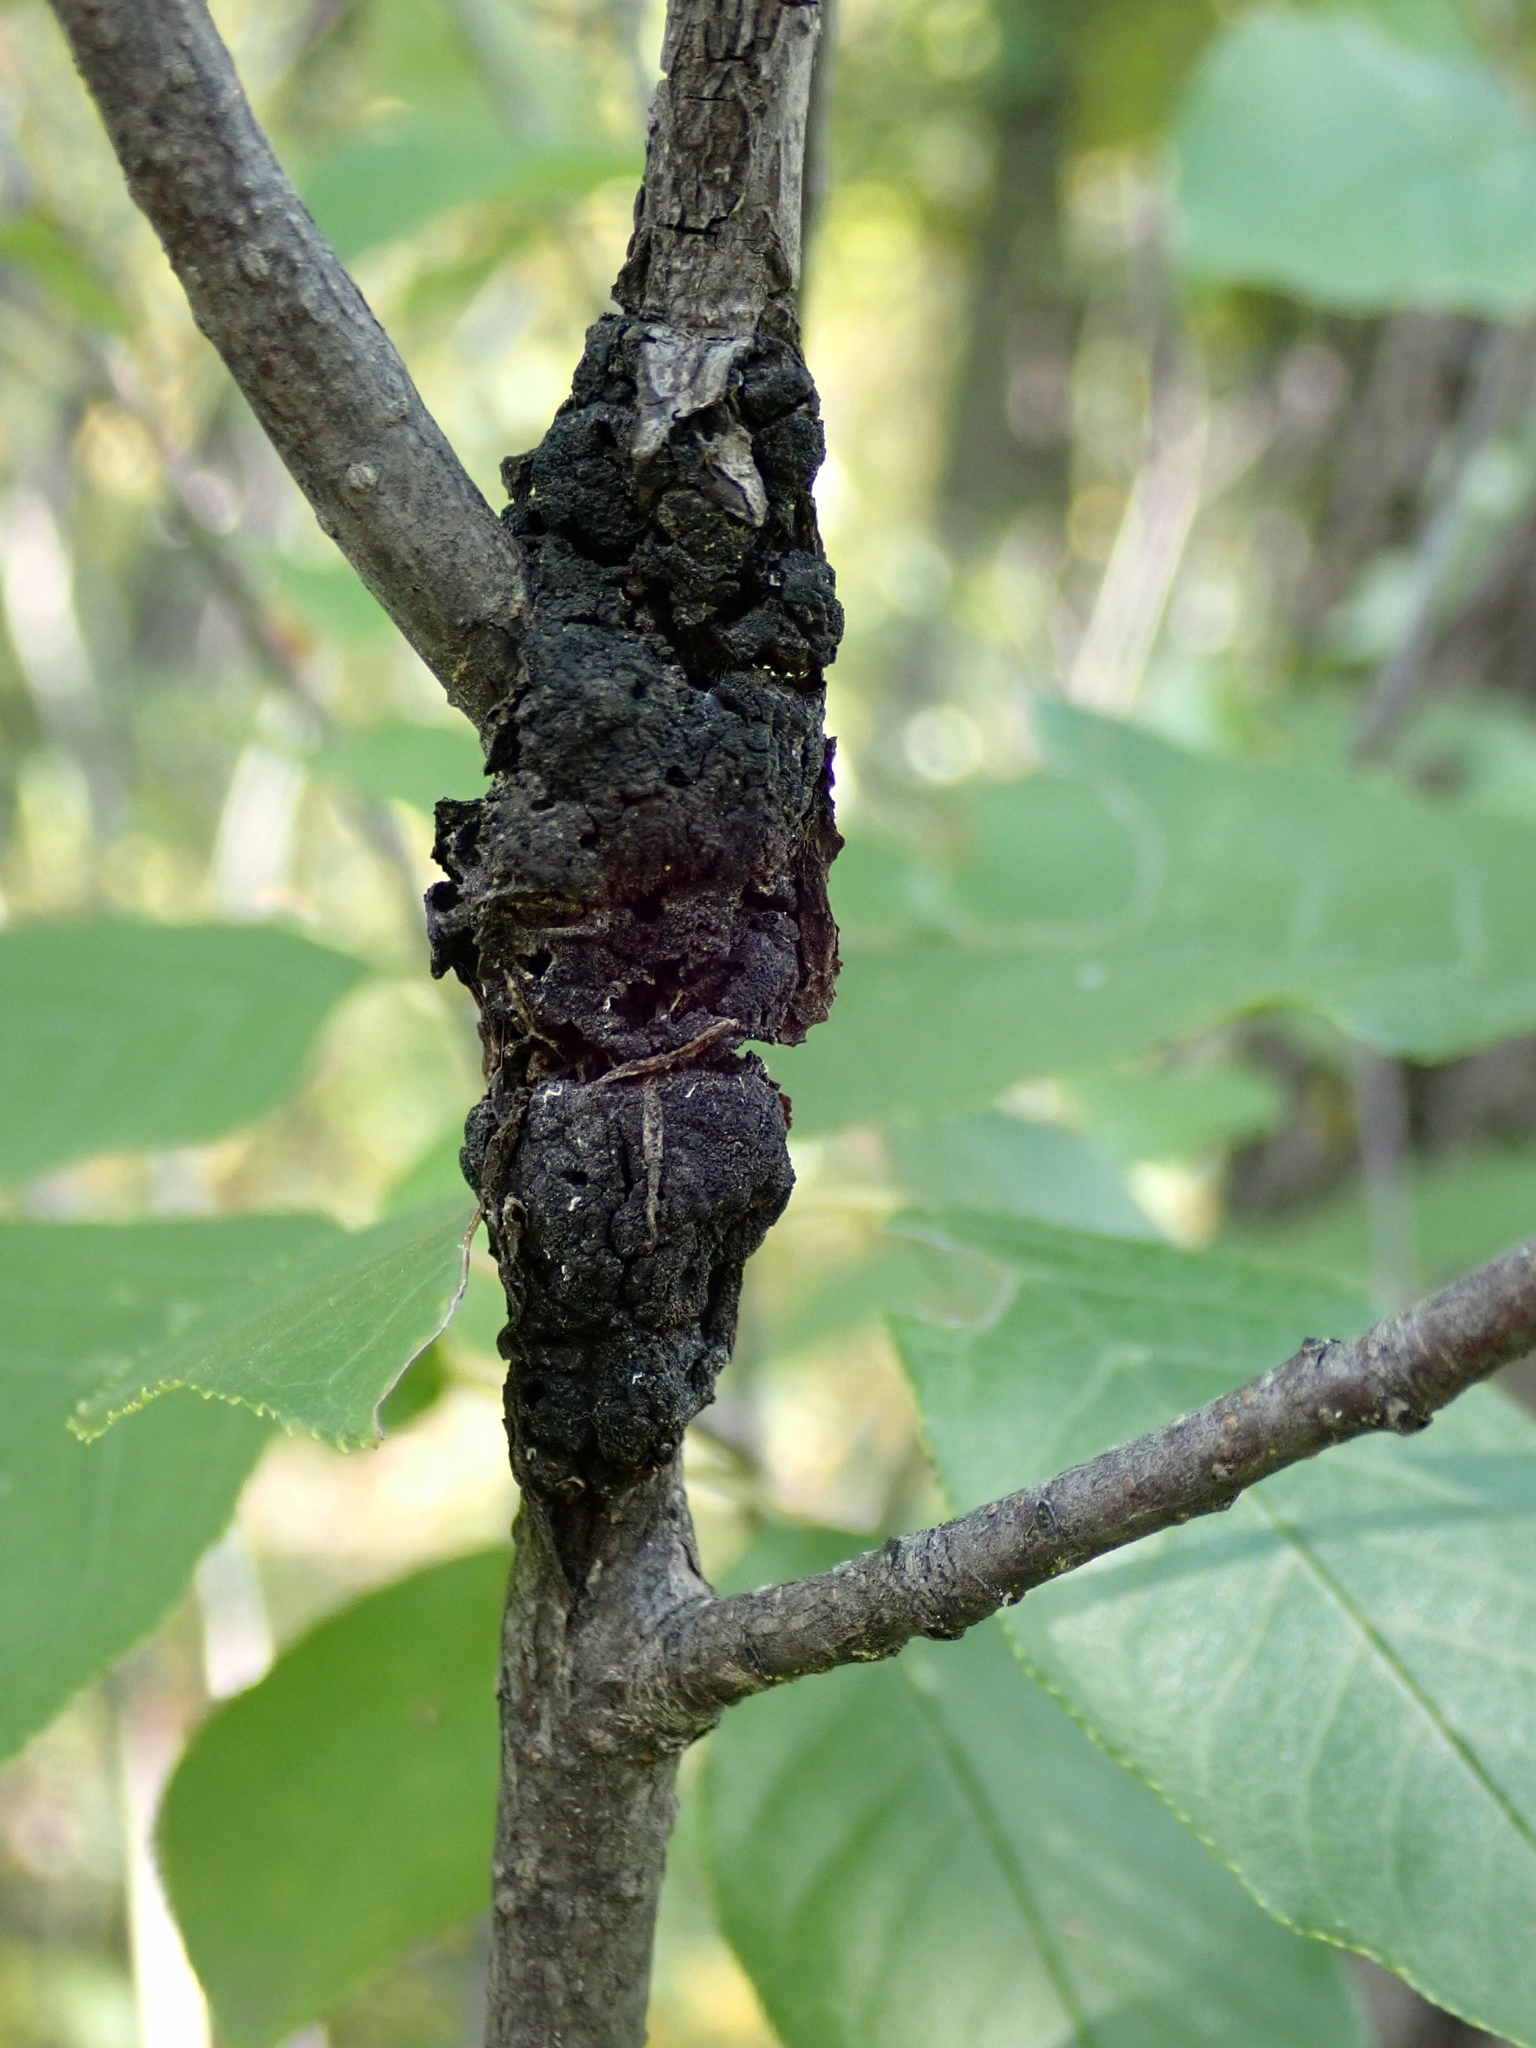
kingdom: Fungi
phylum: Ascomycota
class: Dothideomycetes
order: Venturiales
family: Venturiaceae
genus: Apiosporina
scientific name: Apiosporina morbosa
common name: Black knot
